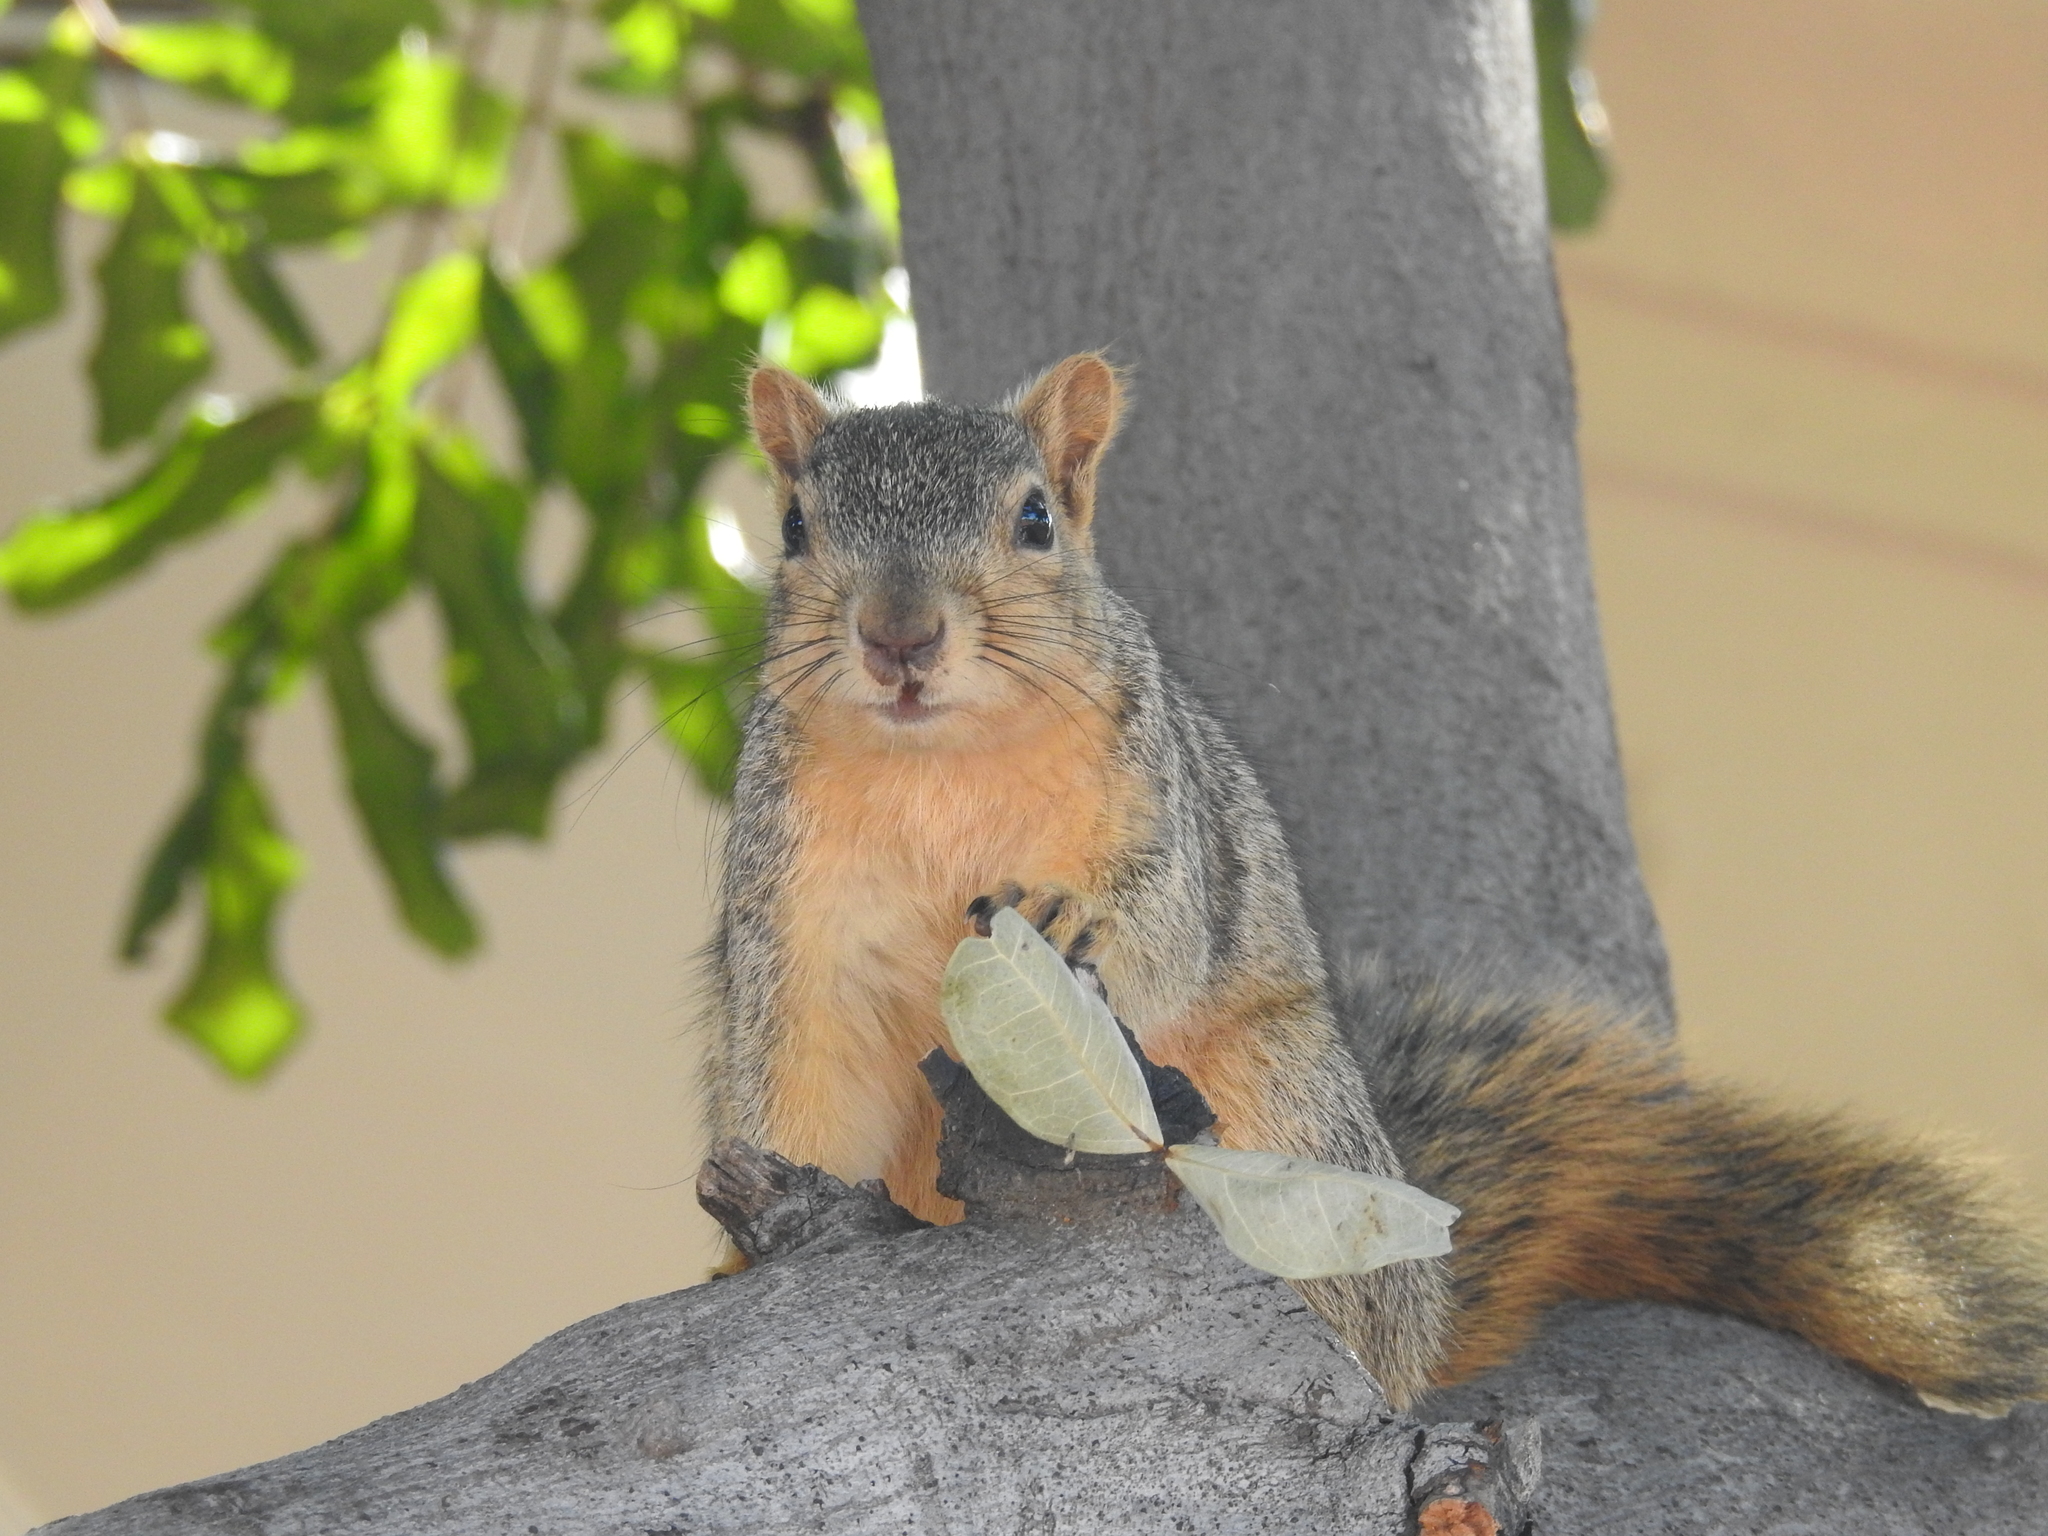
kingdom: Animalia
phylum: Chordata
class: Mammalia
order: Rodentia
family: Sciuridae
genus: Sciurus
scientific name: Sciurus niger
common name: Fox squirrel
